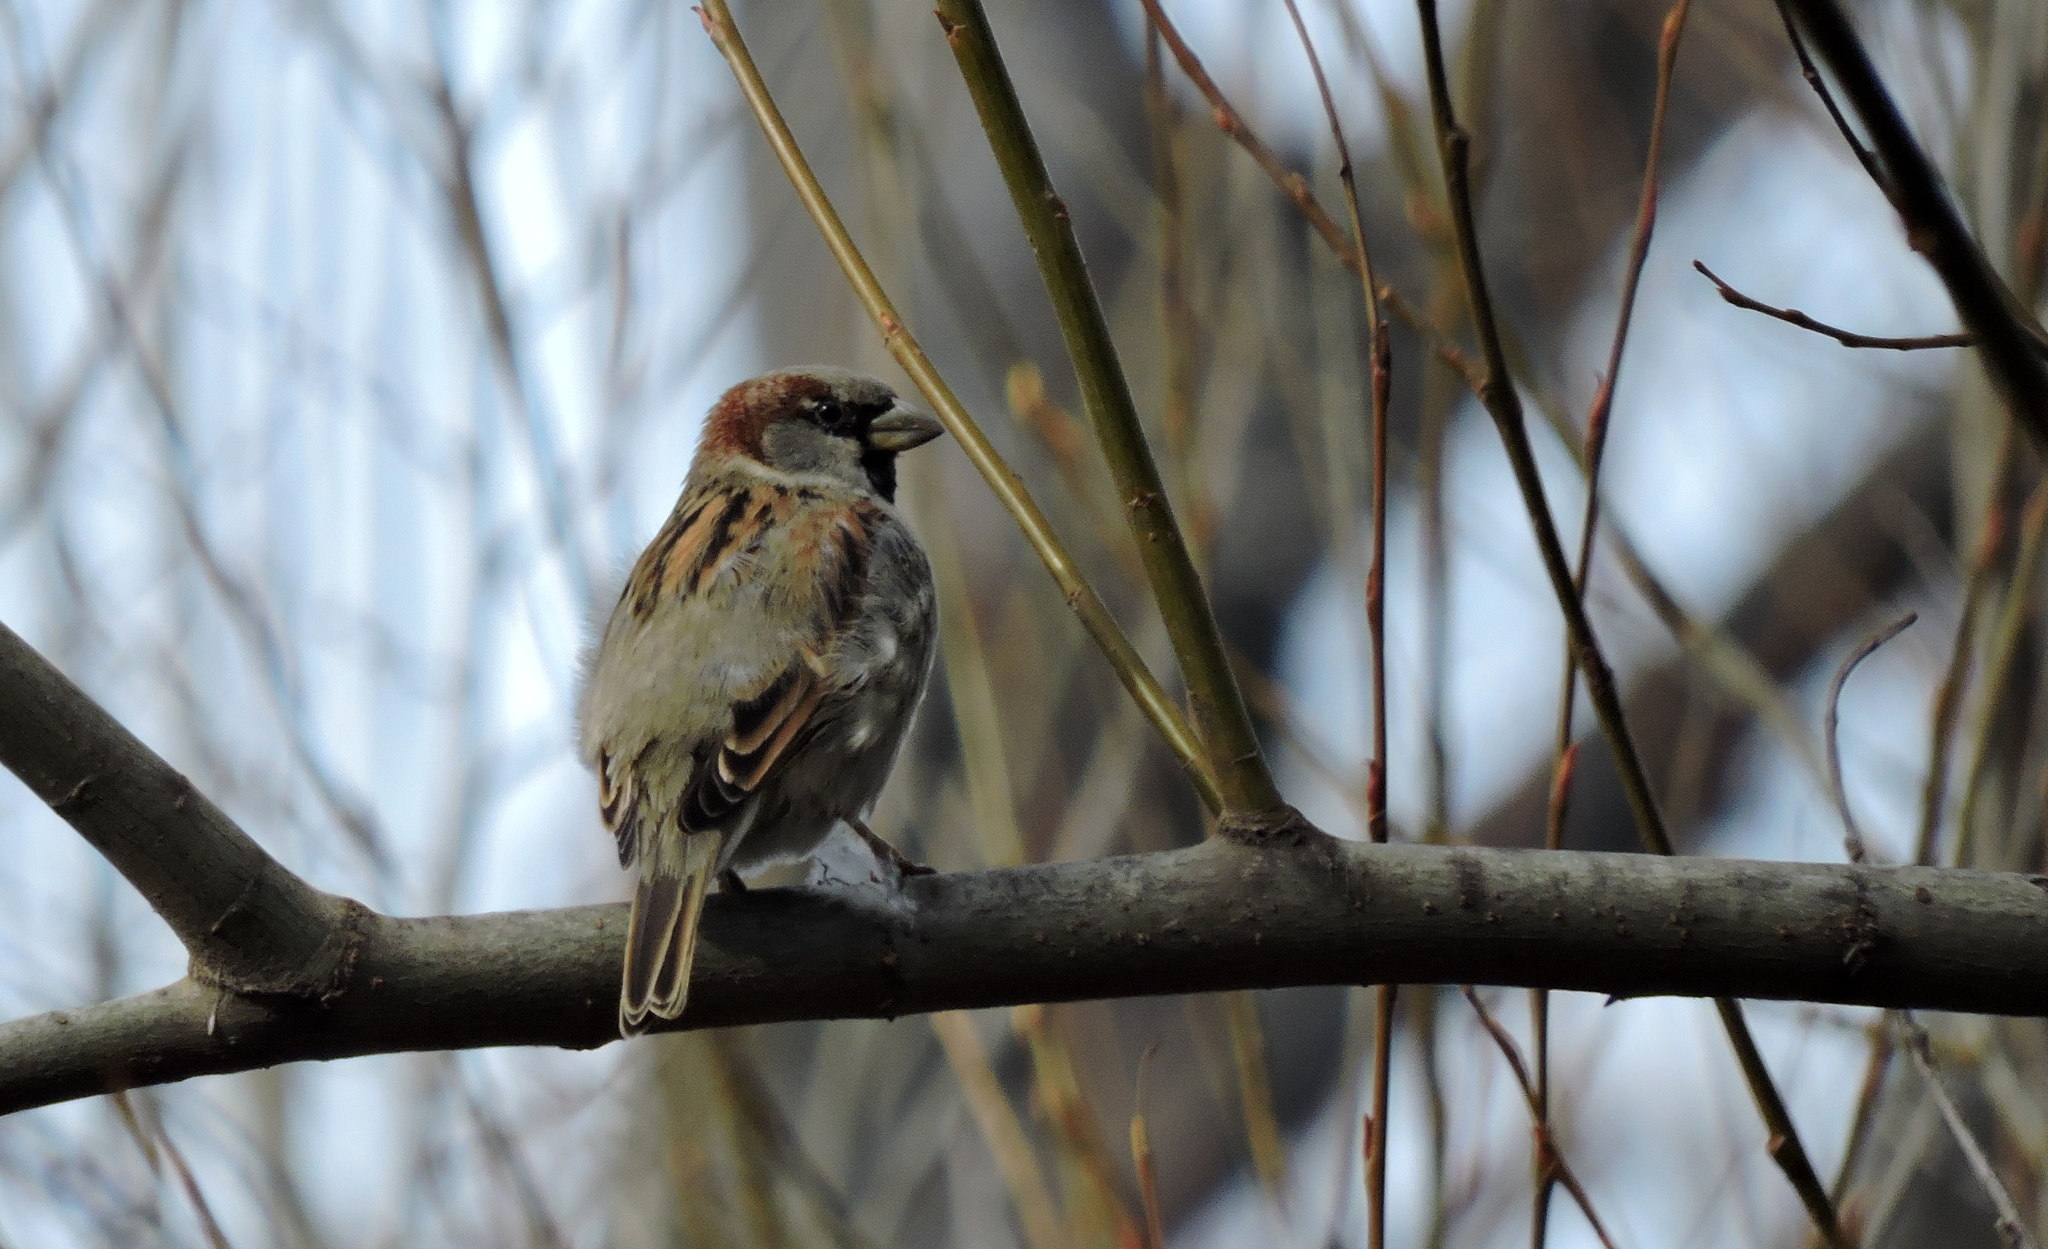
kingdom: Animalia
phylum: Chordata
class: Aves
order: Passeriformes
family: Passeridae
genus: Passer
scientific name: Passer domesticus
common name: House sparrow
